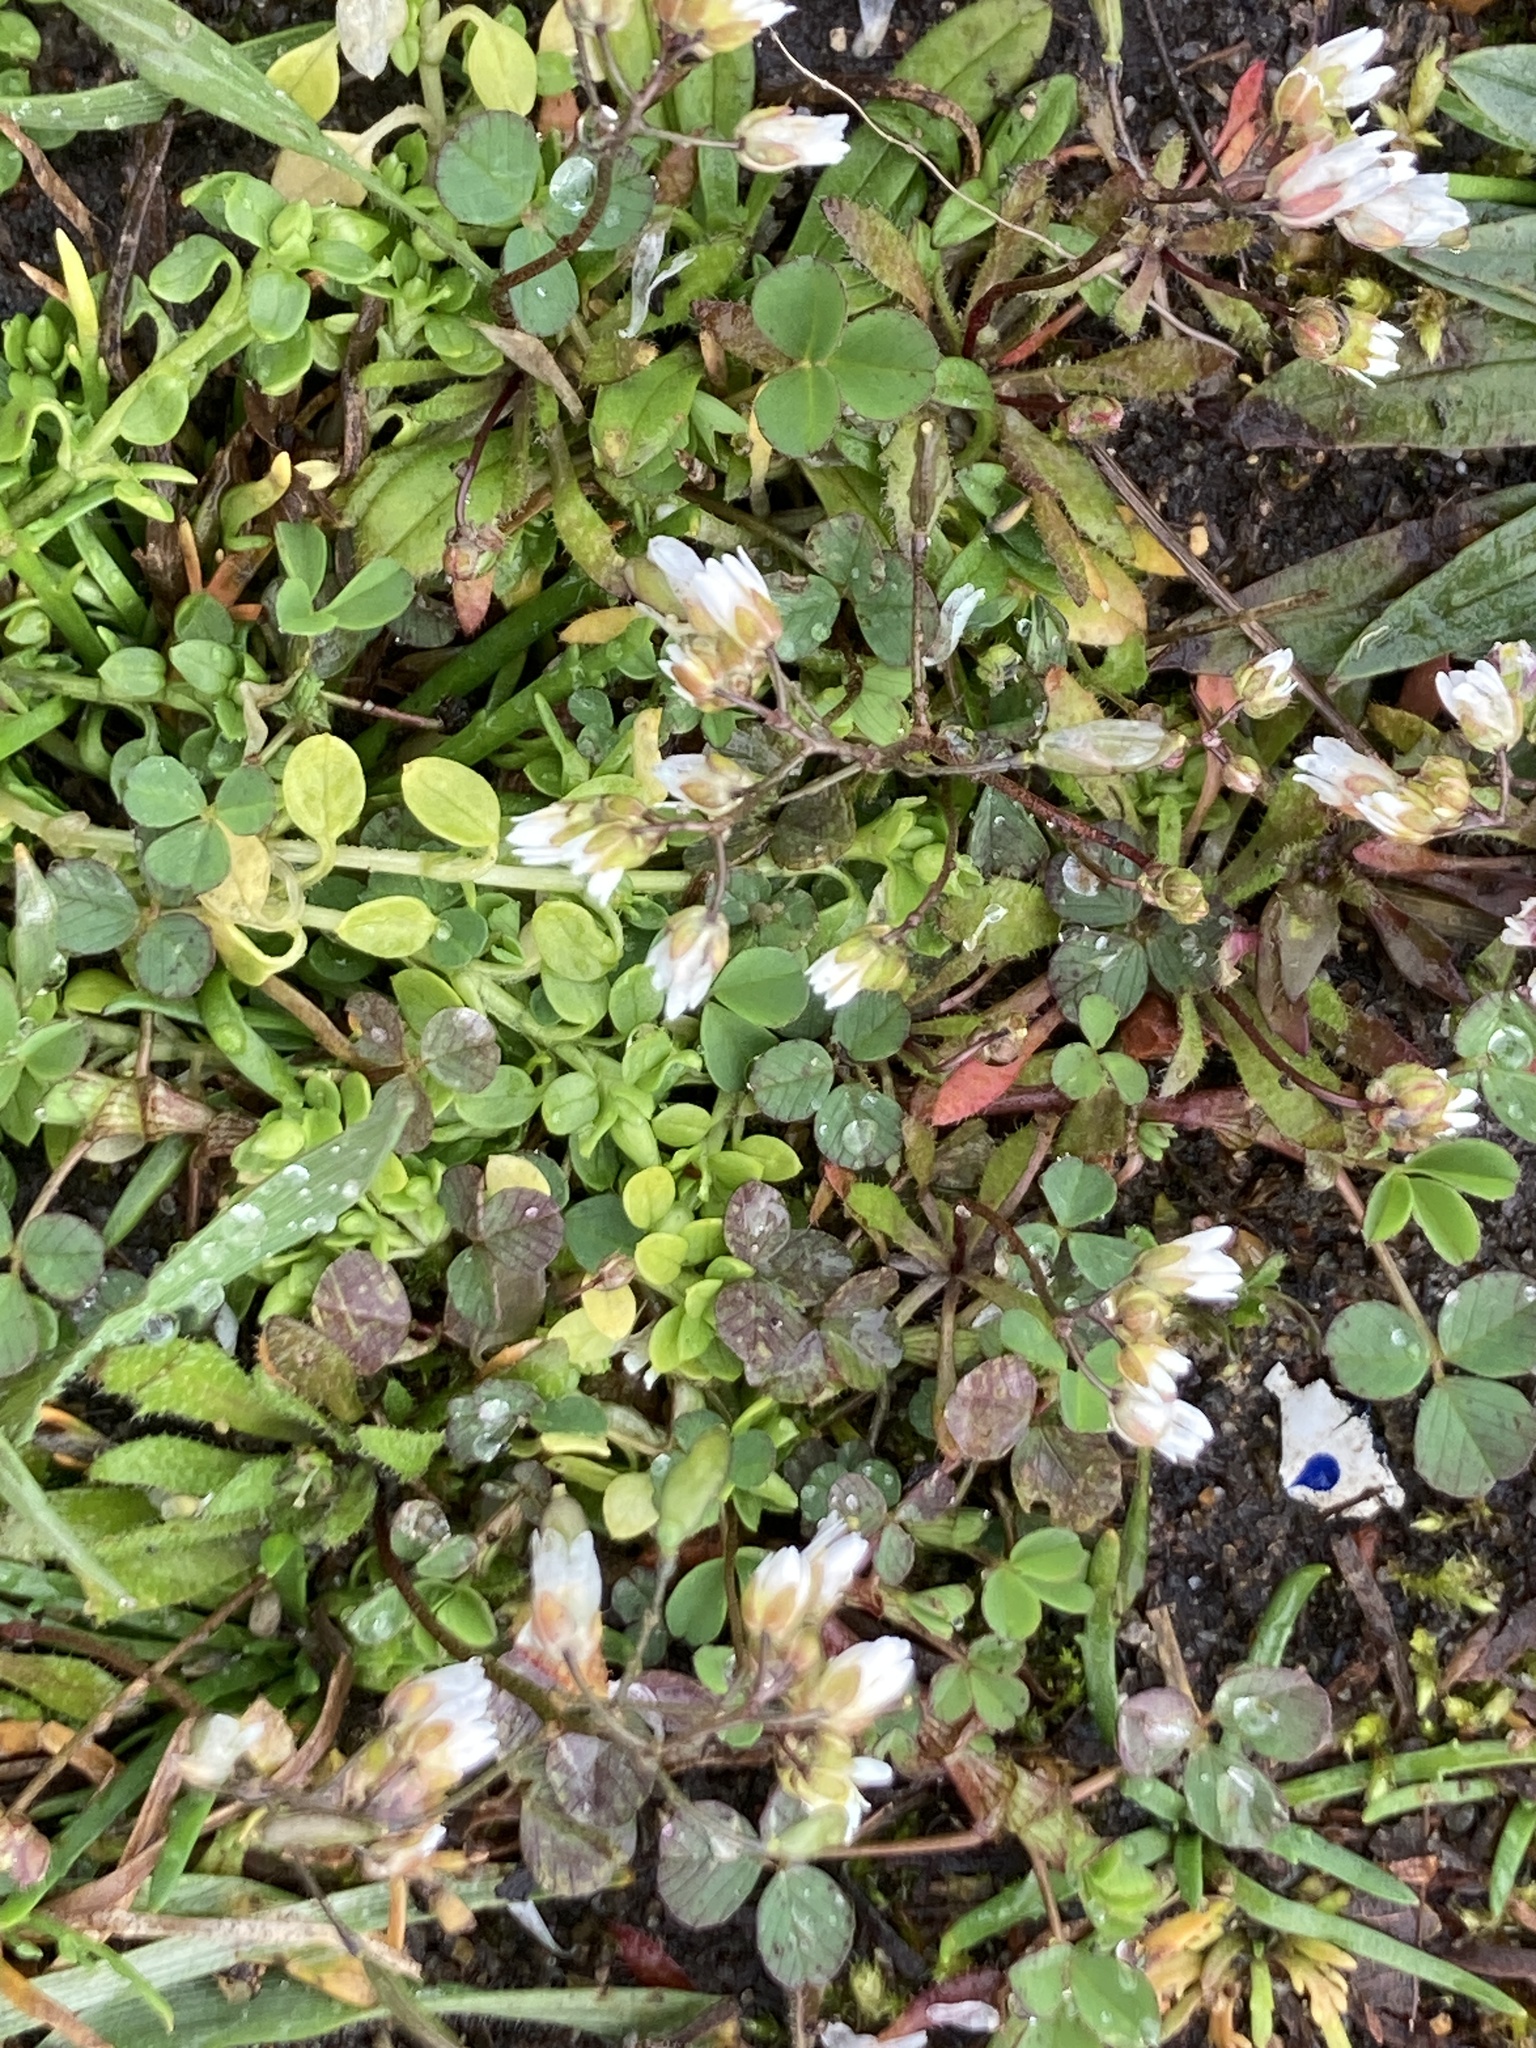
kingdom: Plantae
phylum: Tracheophyta
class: Magnoliopsida
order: Brassicales
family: Brassicaceae
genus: Draba
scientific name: Draba verna
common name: Spring draba
